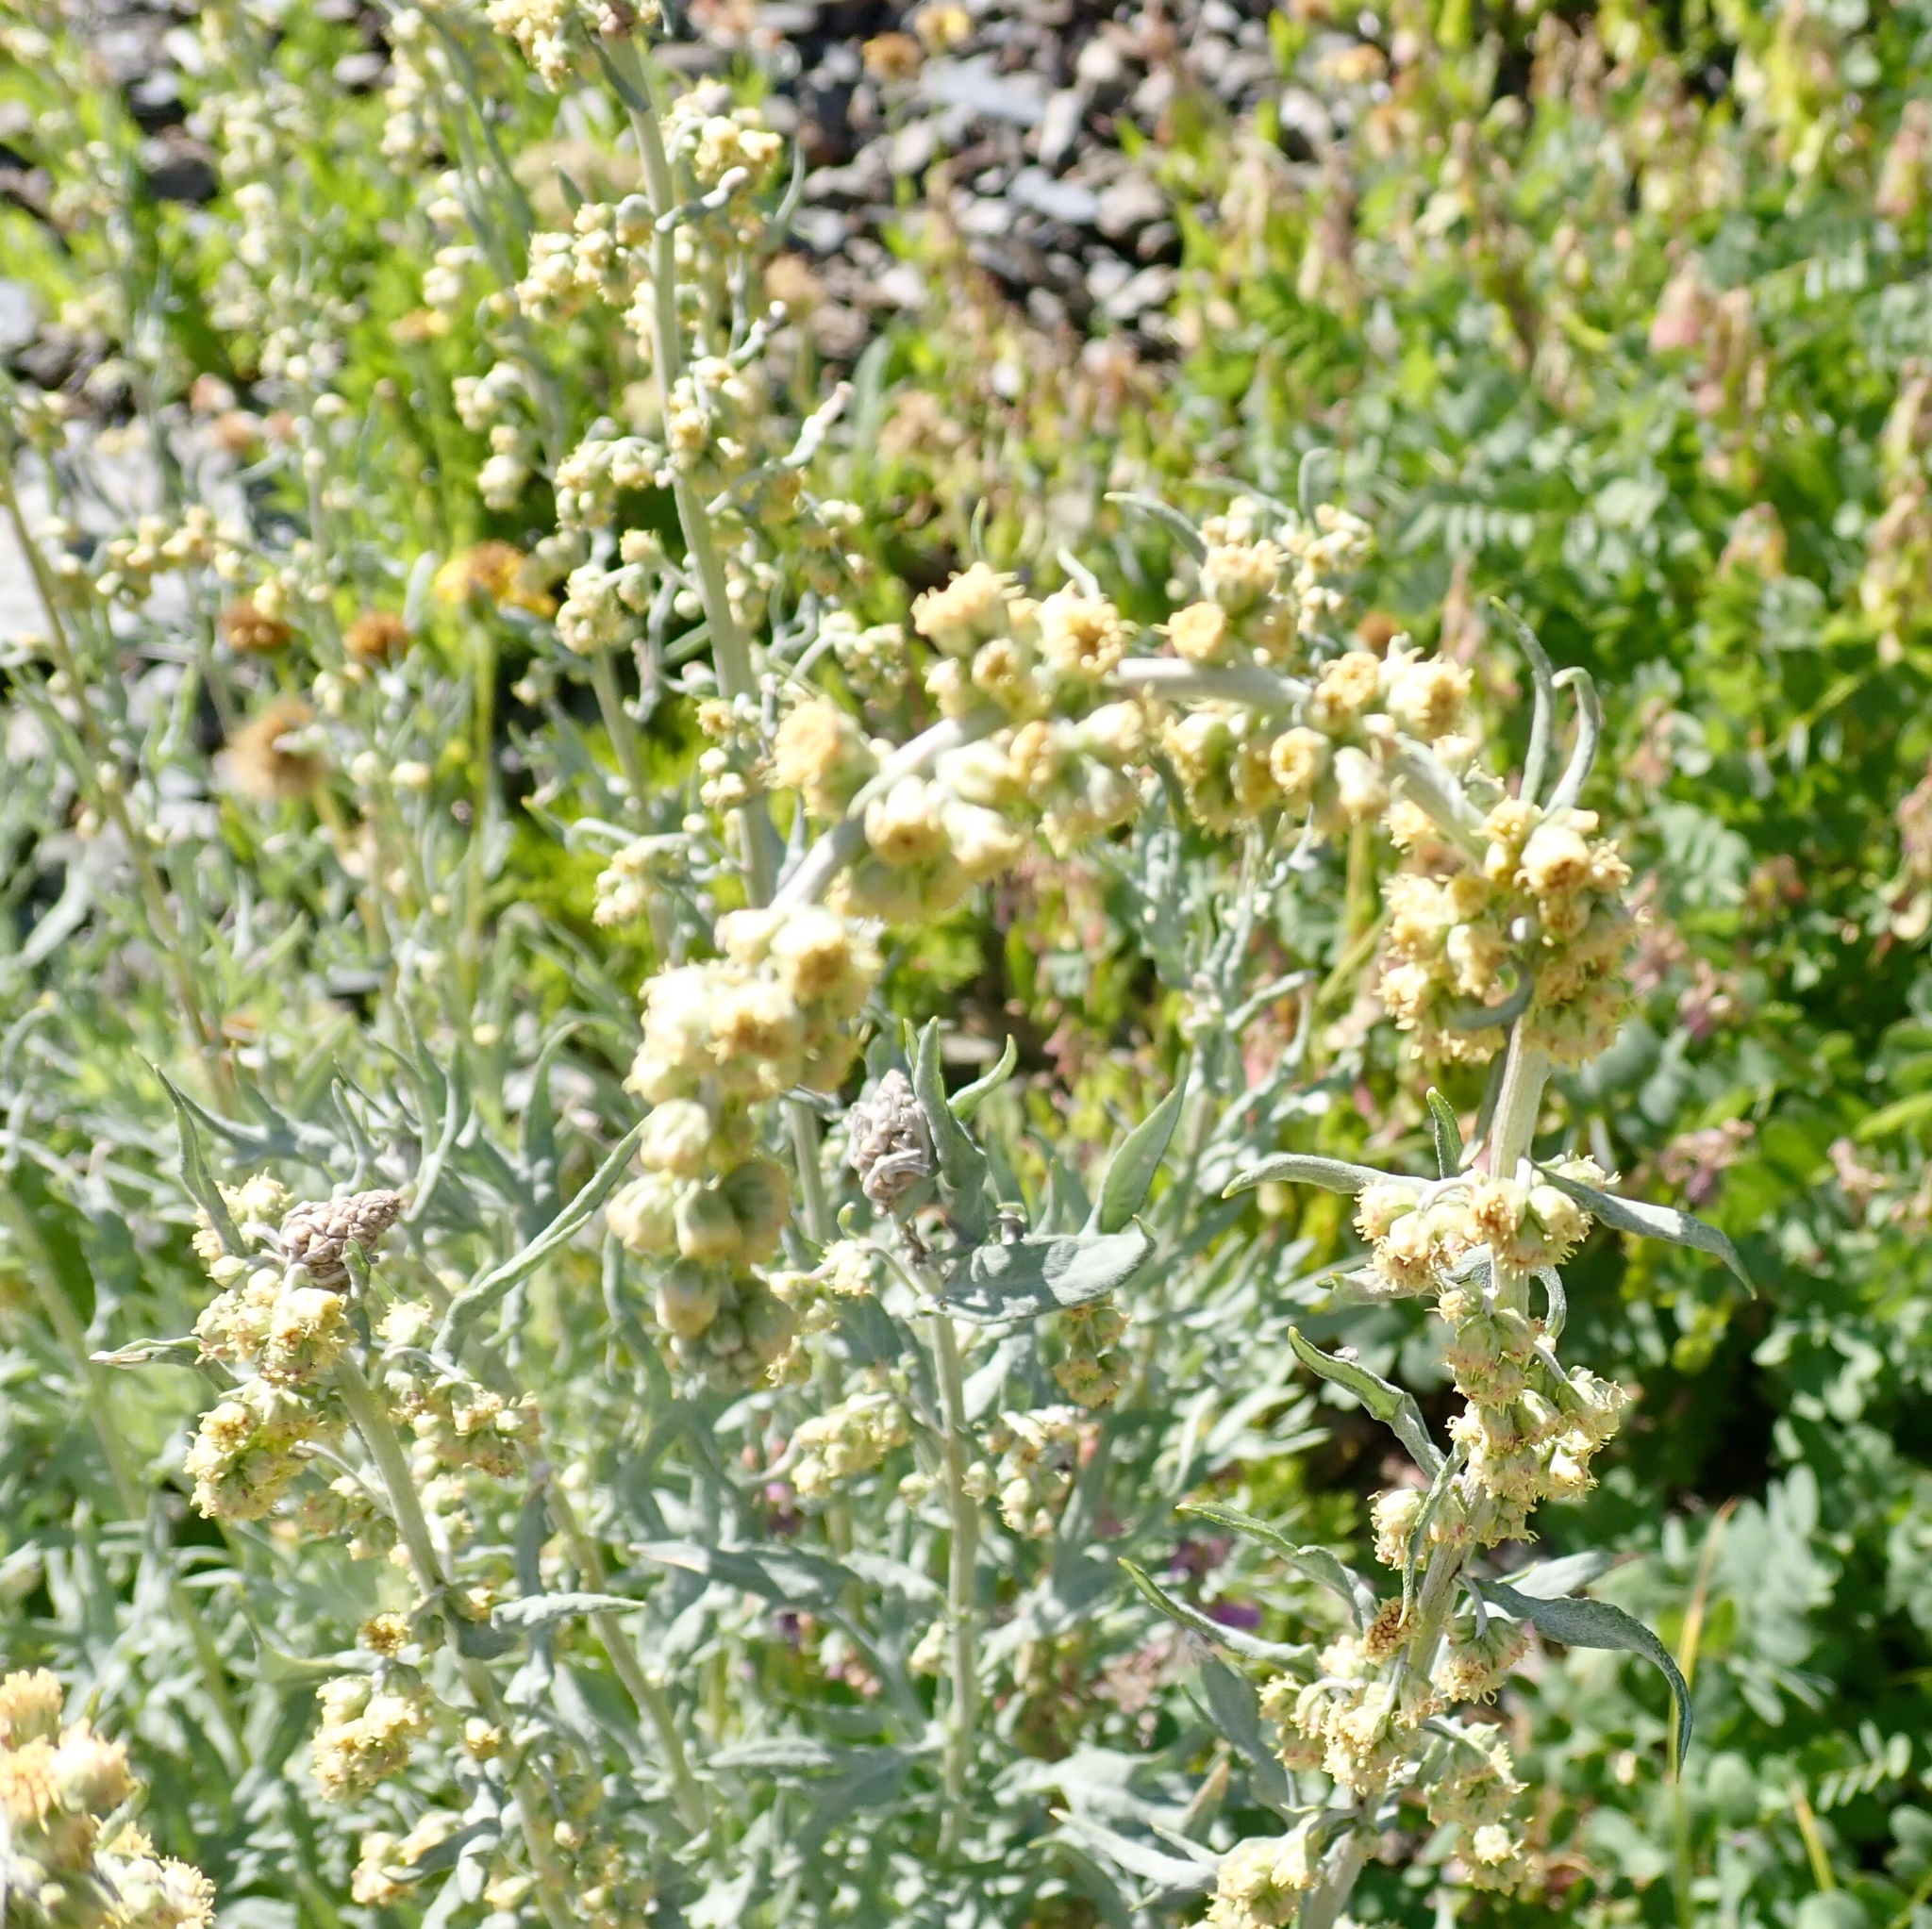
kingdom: Plantae
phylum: Tracheophyta
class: Magnoliopsida
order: Asterales
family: Asteraceae
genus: Artemisia
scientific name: Artemisia tilesii
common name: Aleutian mugwort
